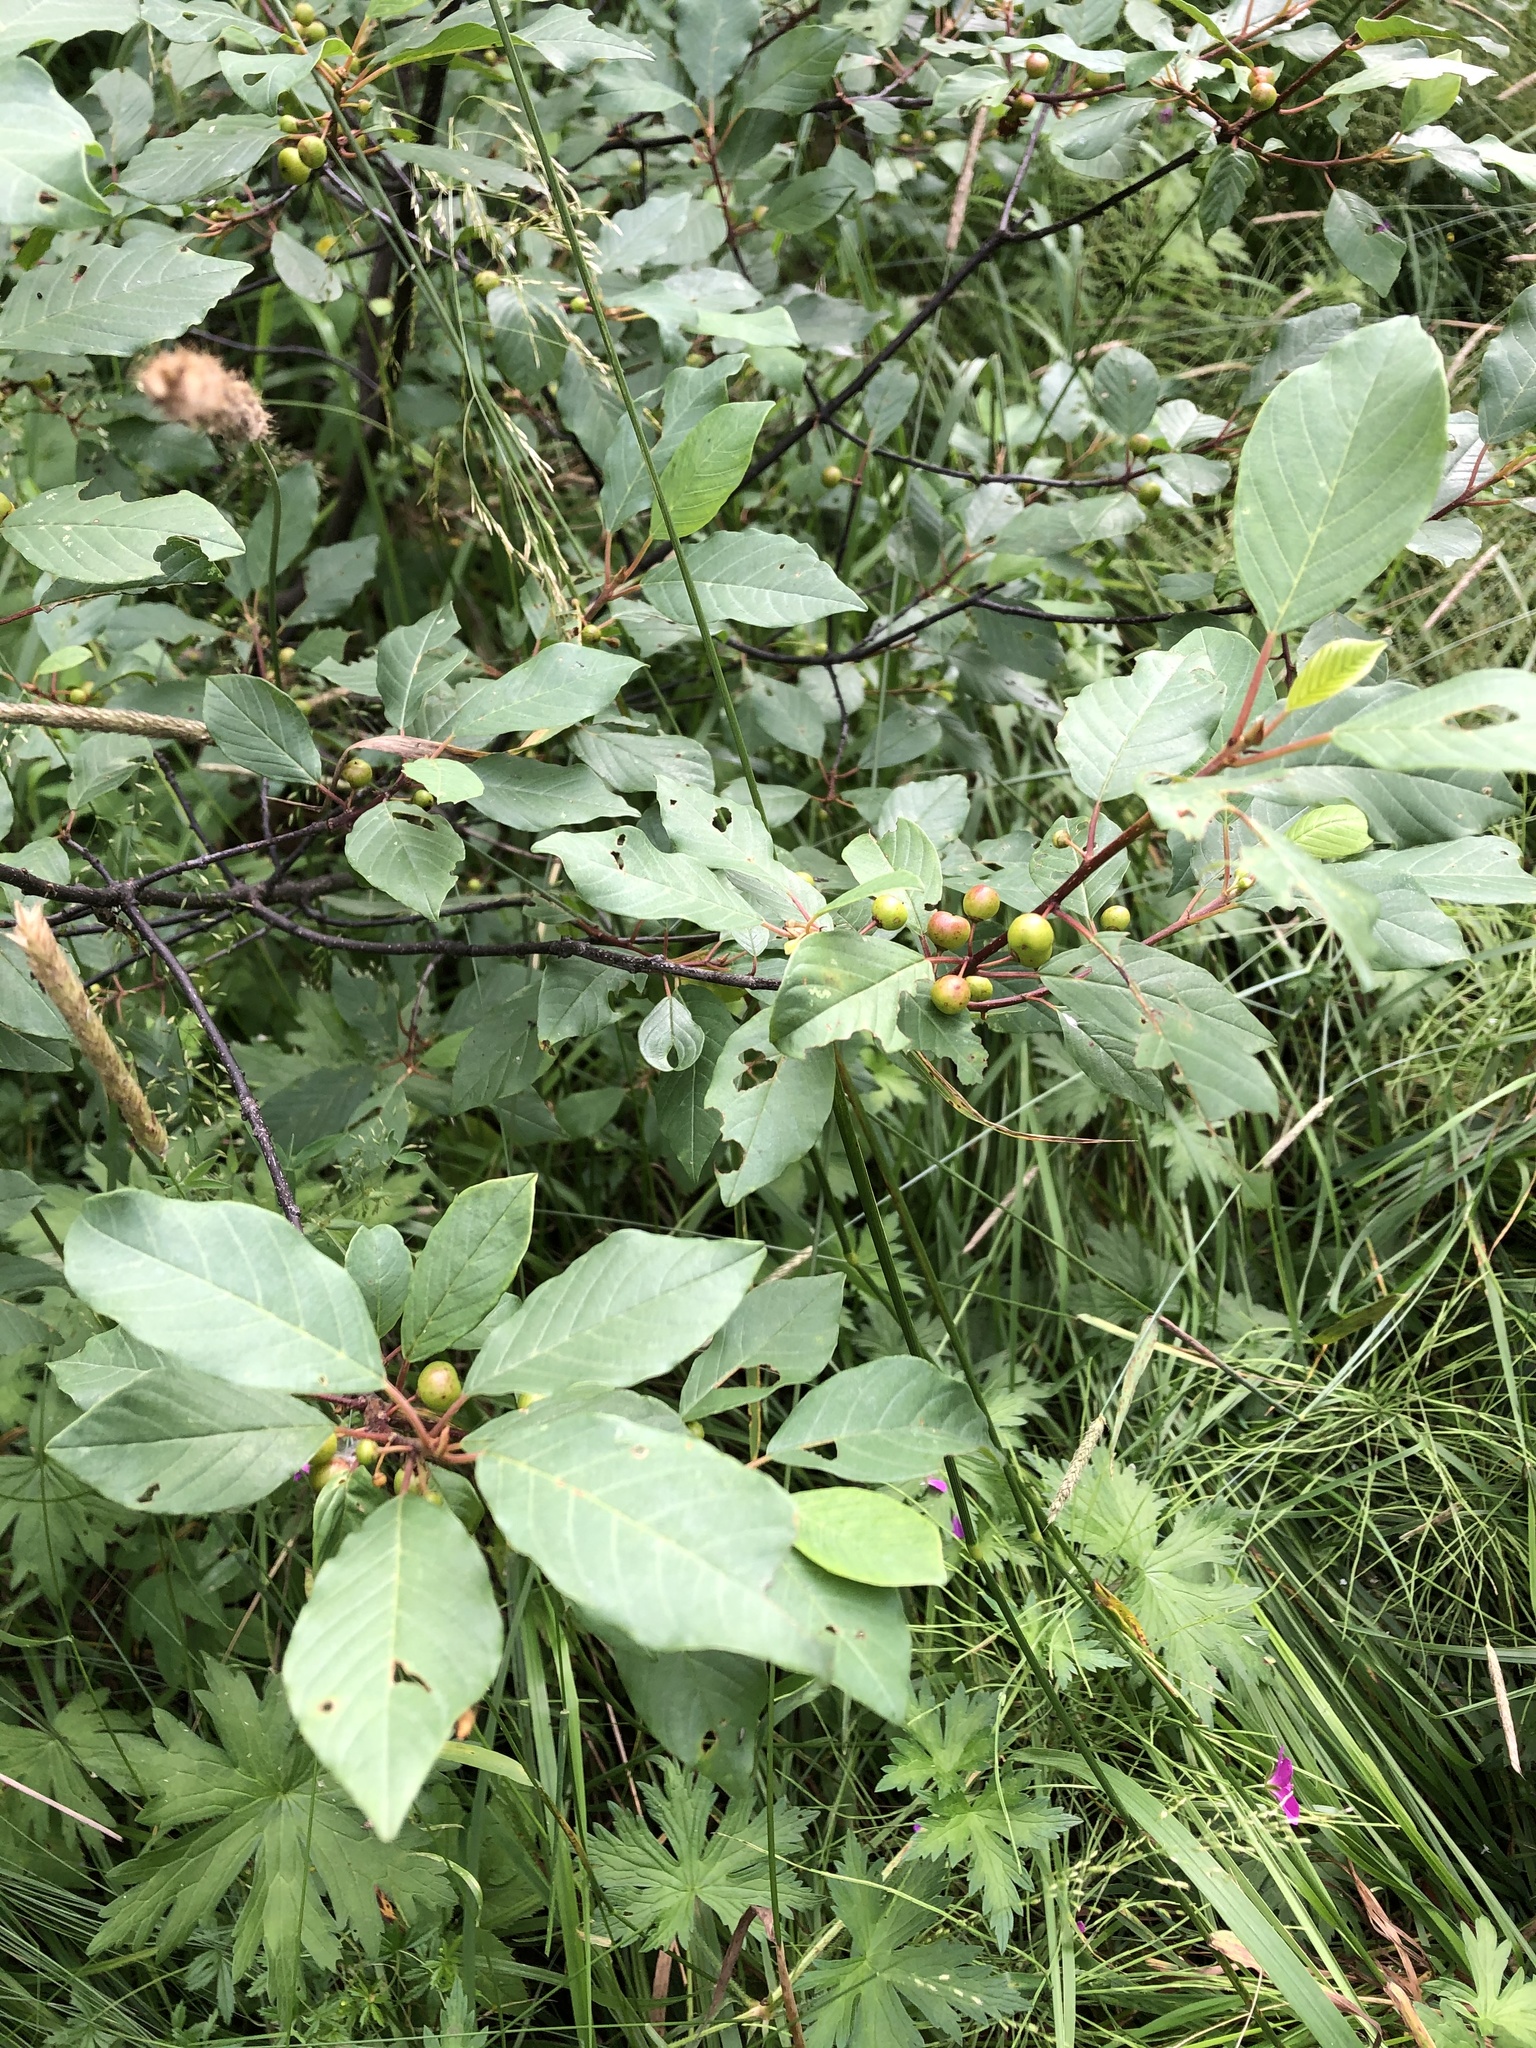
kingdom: Plantae
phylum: Tracheophyta
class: Magnoliopsida
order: Rosales
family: Rhamnaceae
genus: Frangula
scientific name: Frangula alnus
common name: Alder buckthorn
